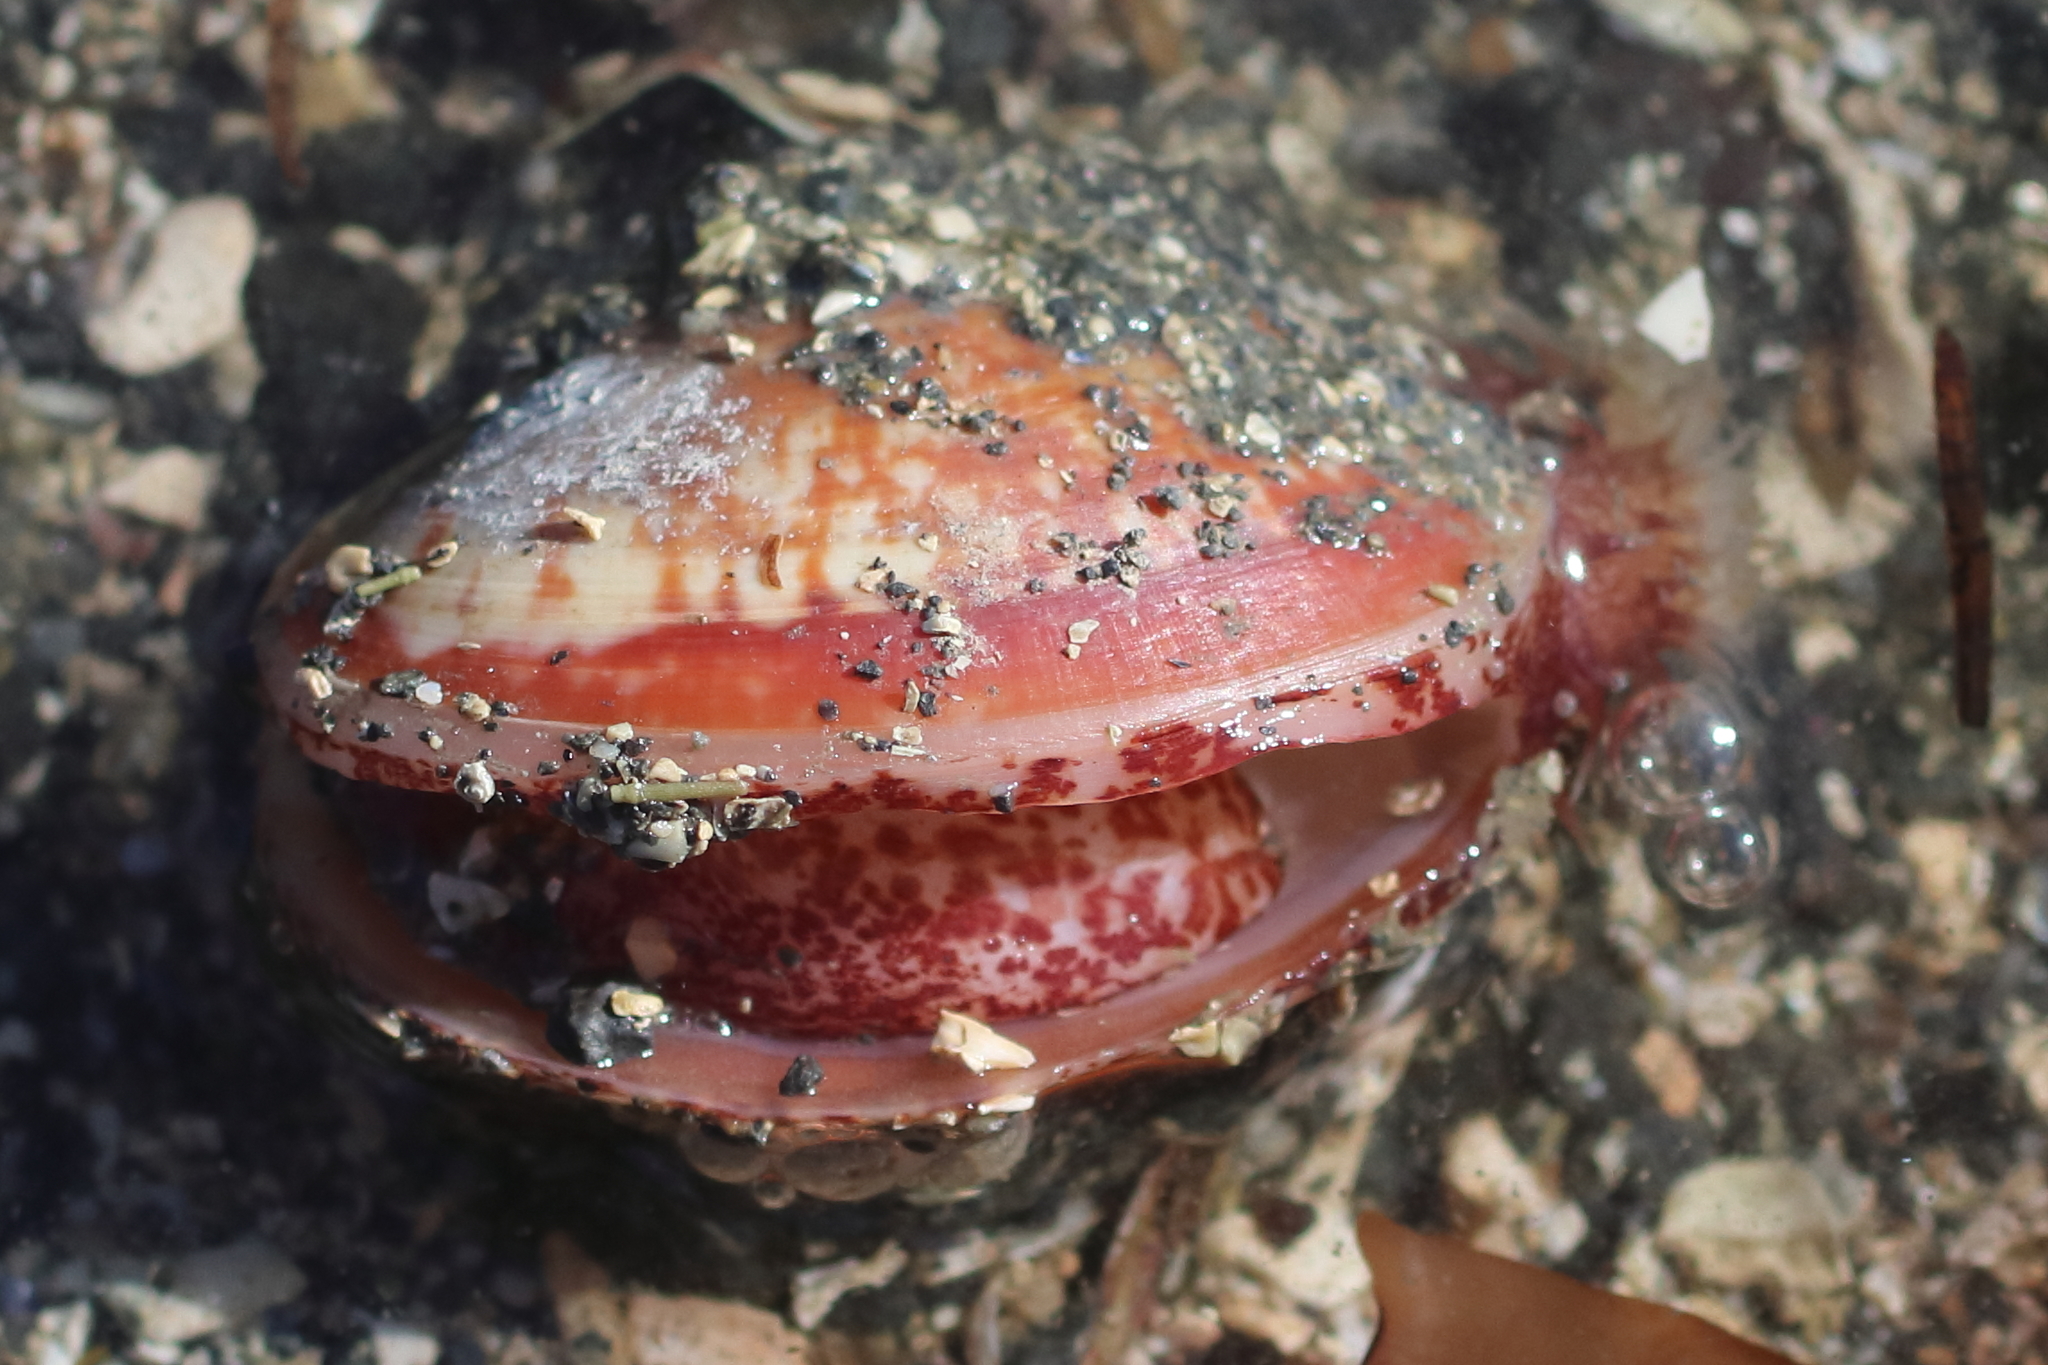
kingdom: Animalia
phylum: Mollusca
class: Bivalvia
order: Cardiida
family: Cardiidae
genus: Serripes
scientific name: Serripes laperousii
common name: Broad cockle
